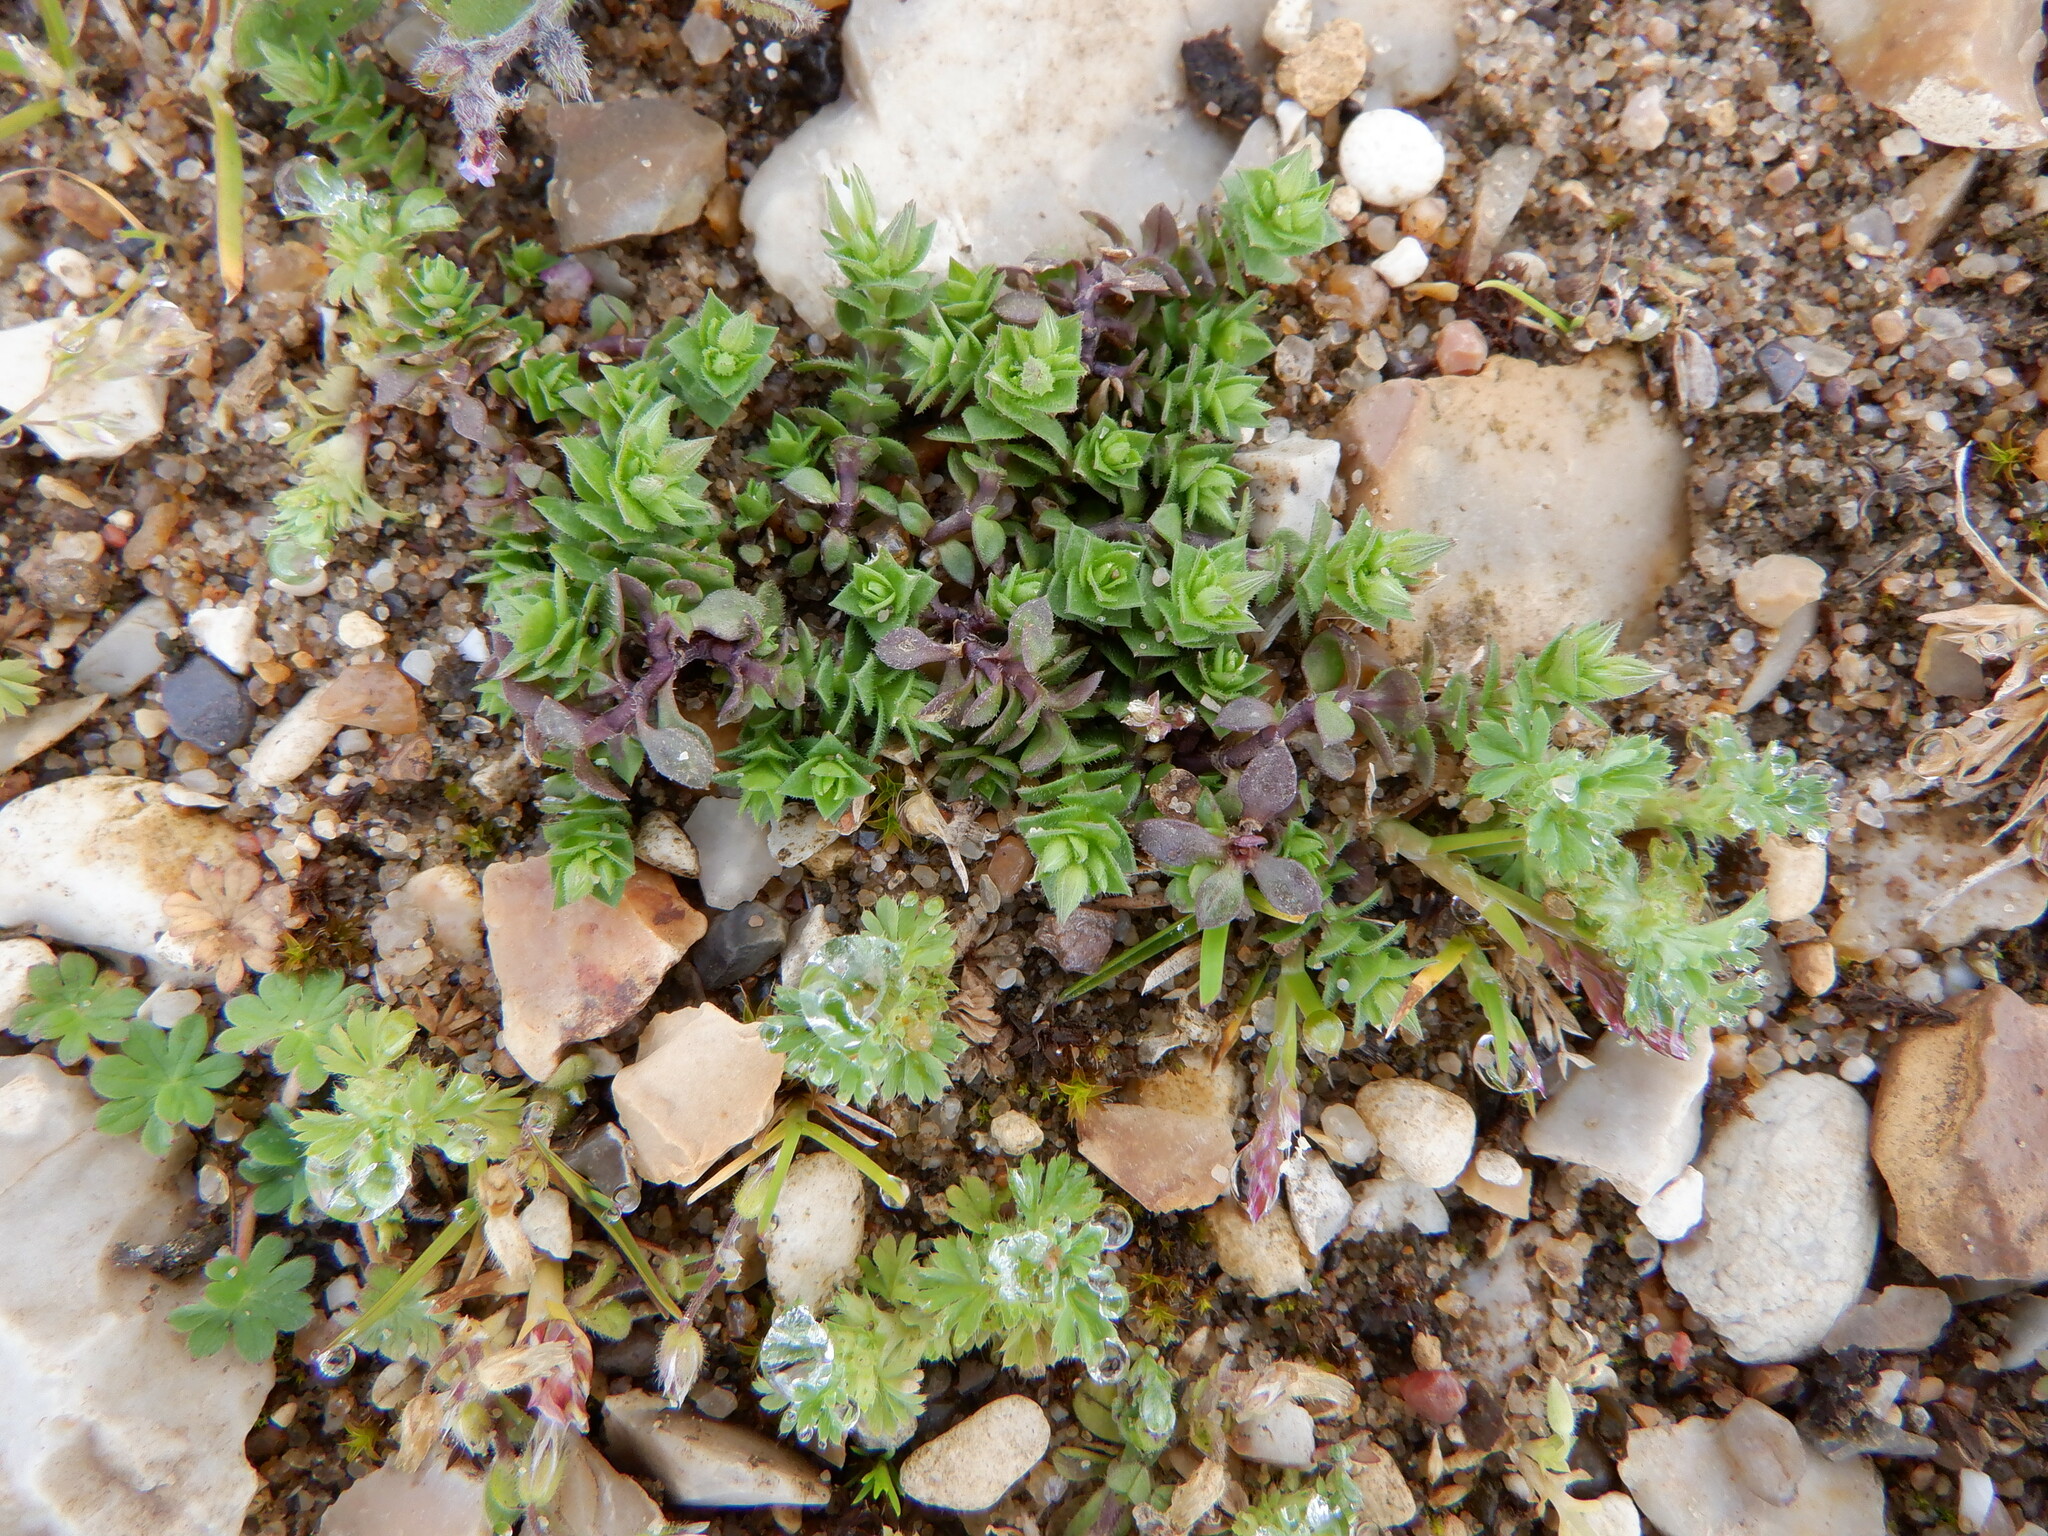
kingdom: Plantae
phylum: Tracheophyta
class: Magnoliopsida
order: Caryophyllales
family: Caryophyllaceae
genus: Arenaria
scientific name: Arenaria serpyllifolia
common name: Thyme-leaved sandwort
